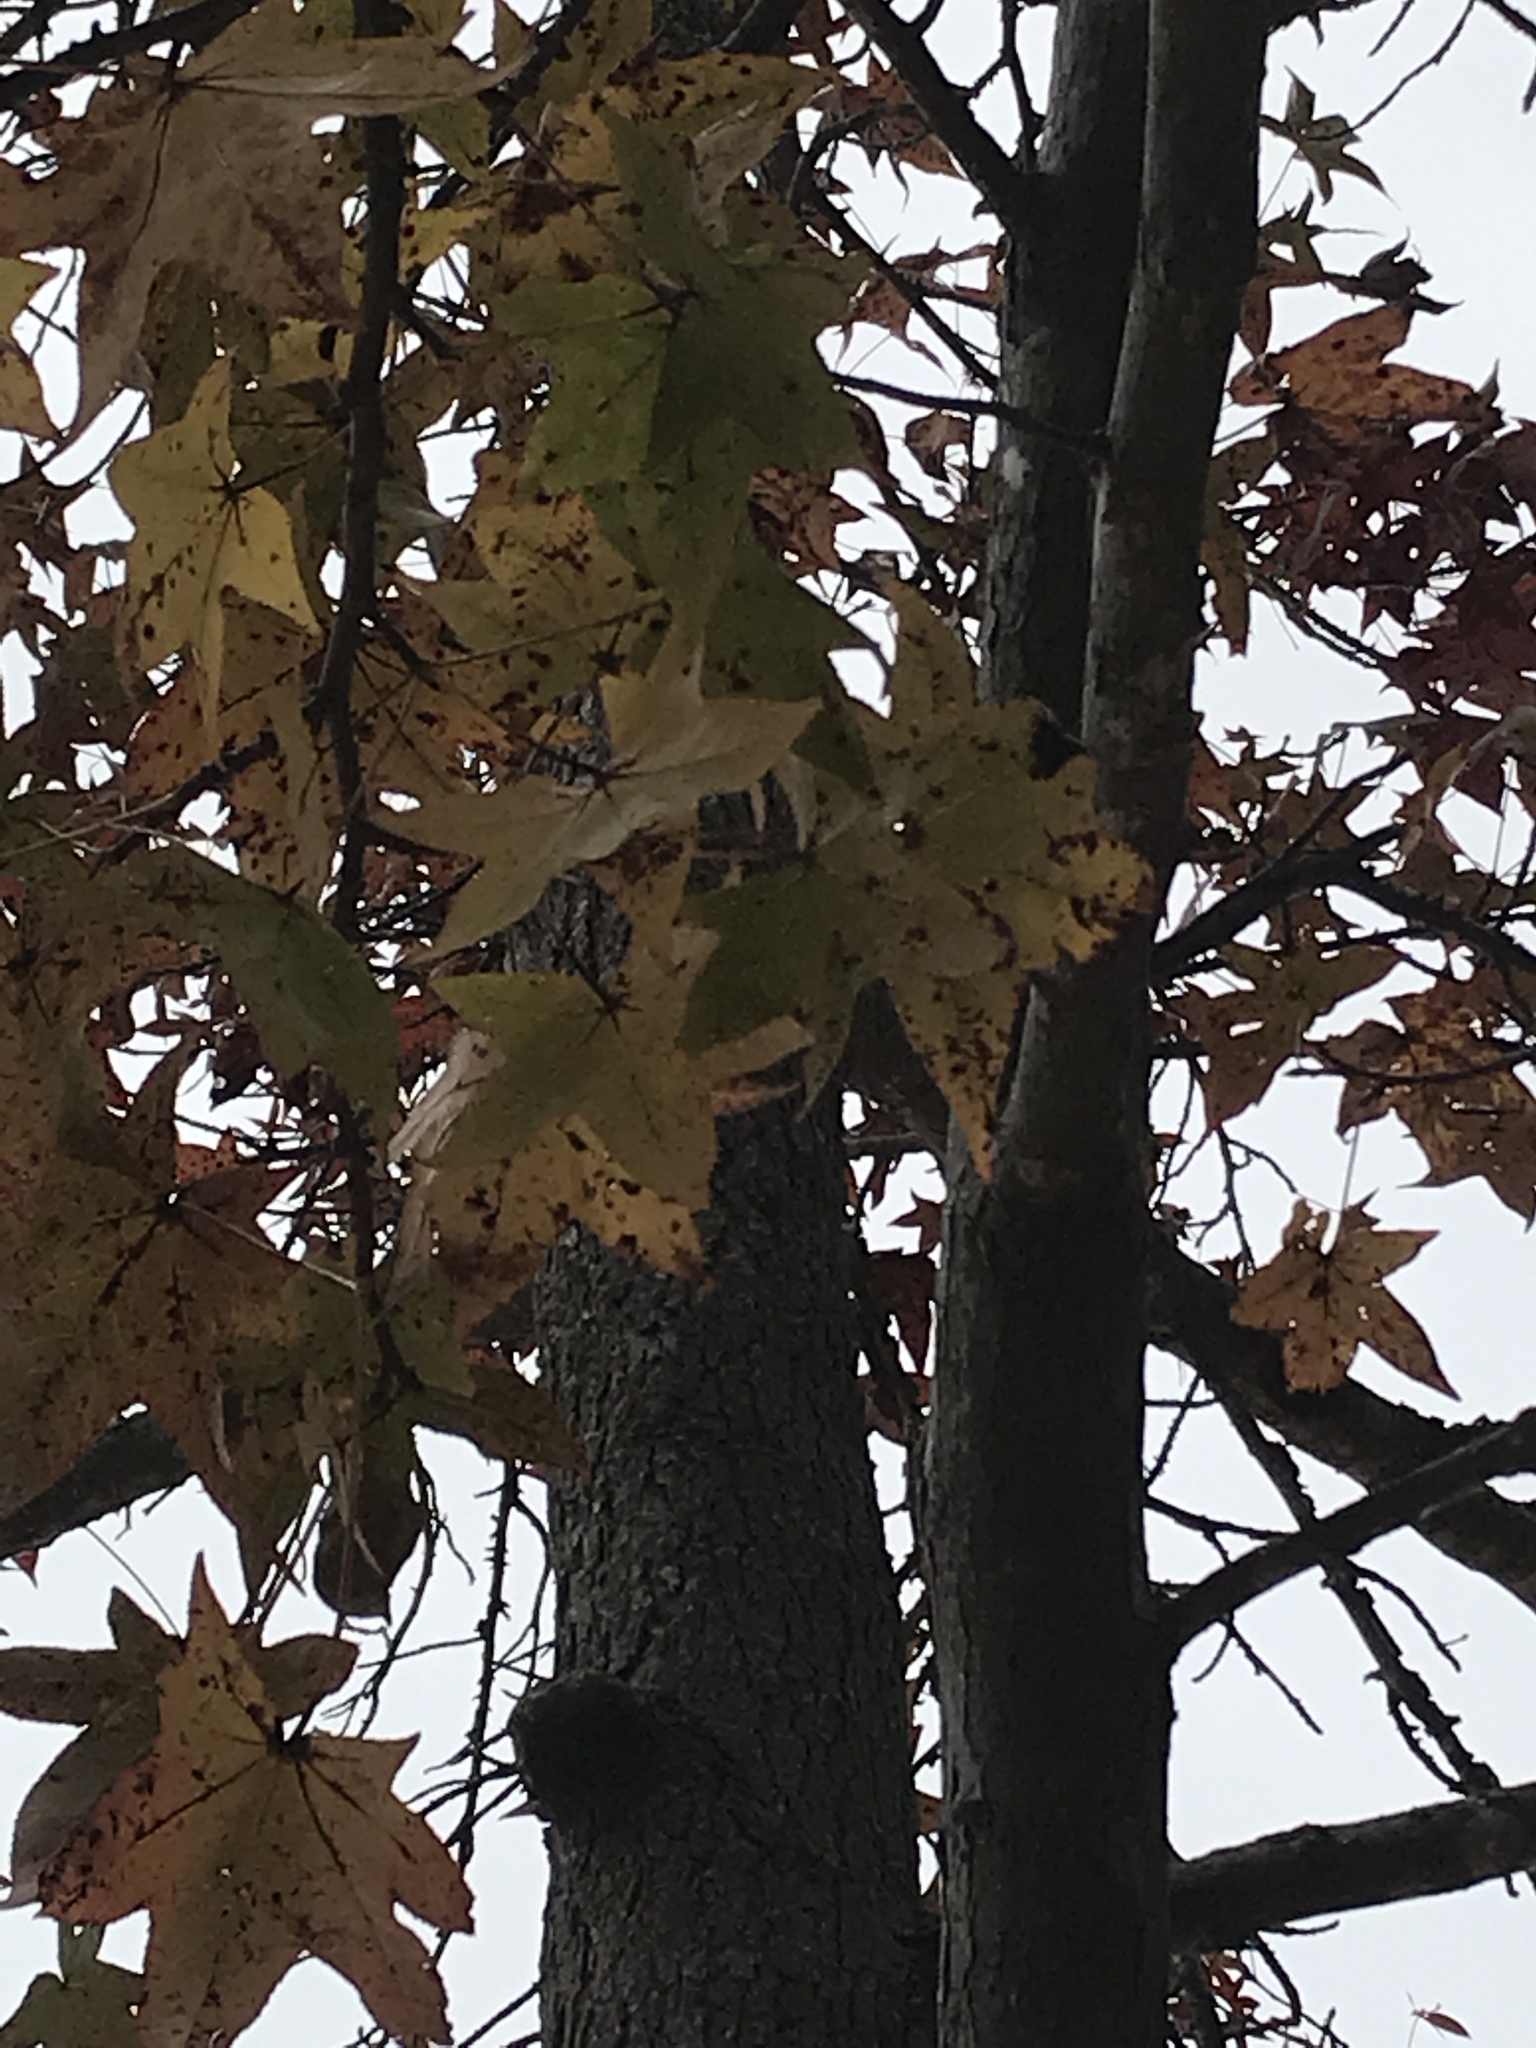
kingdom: Plantae
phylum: Tracheophyta
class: Magnoliopsida
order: Saxifragales
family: Altingiaceae
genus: Liquidambar
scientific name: Liquidambar styraciflua
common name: Sweet gum
